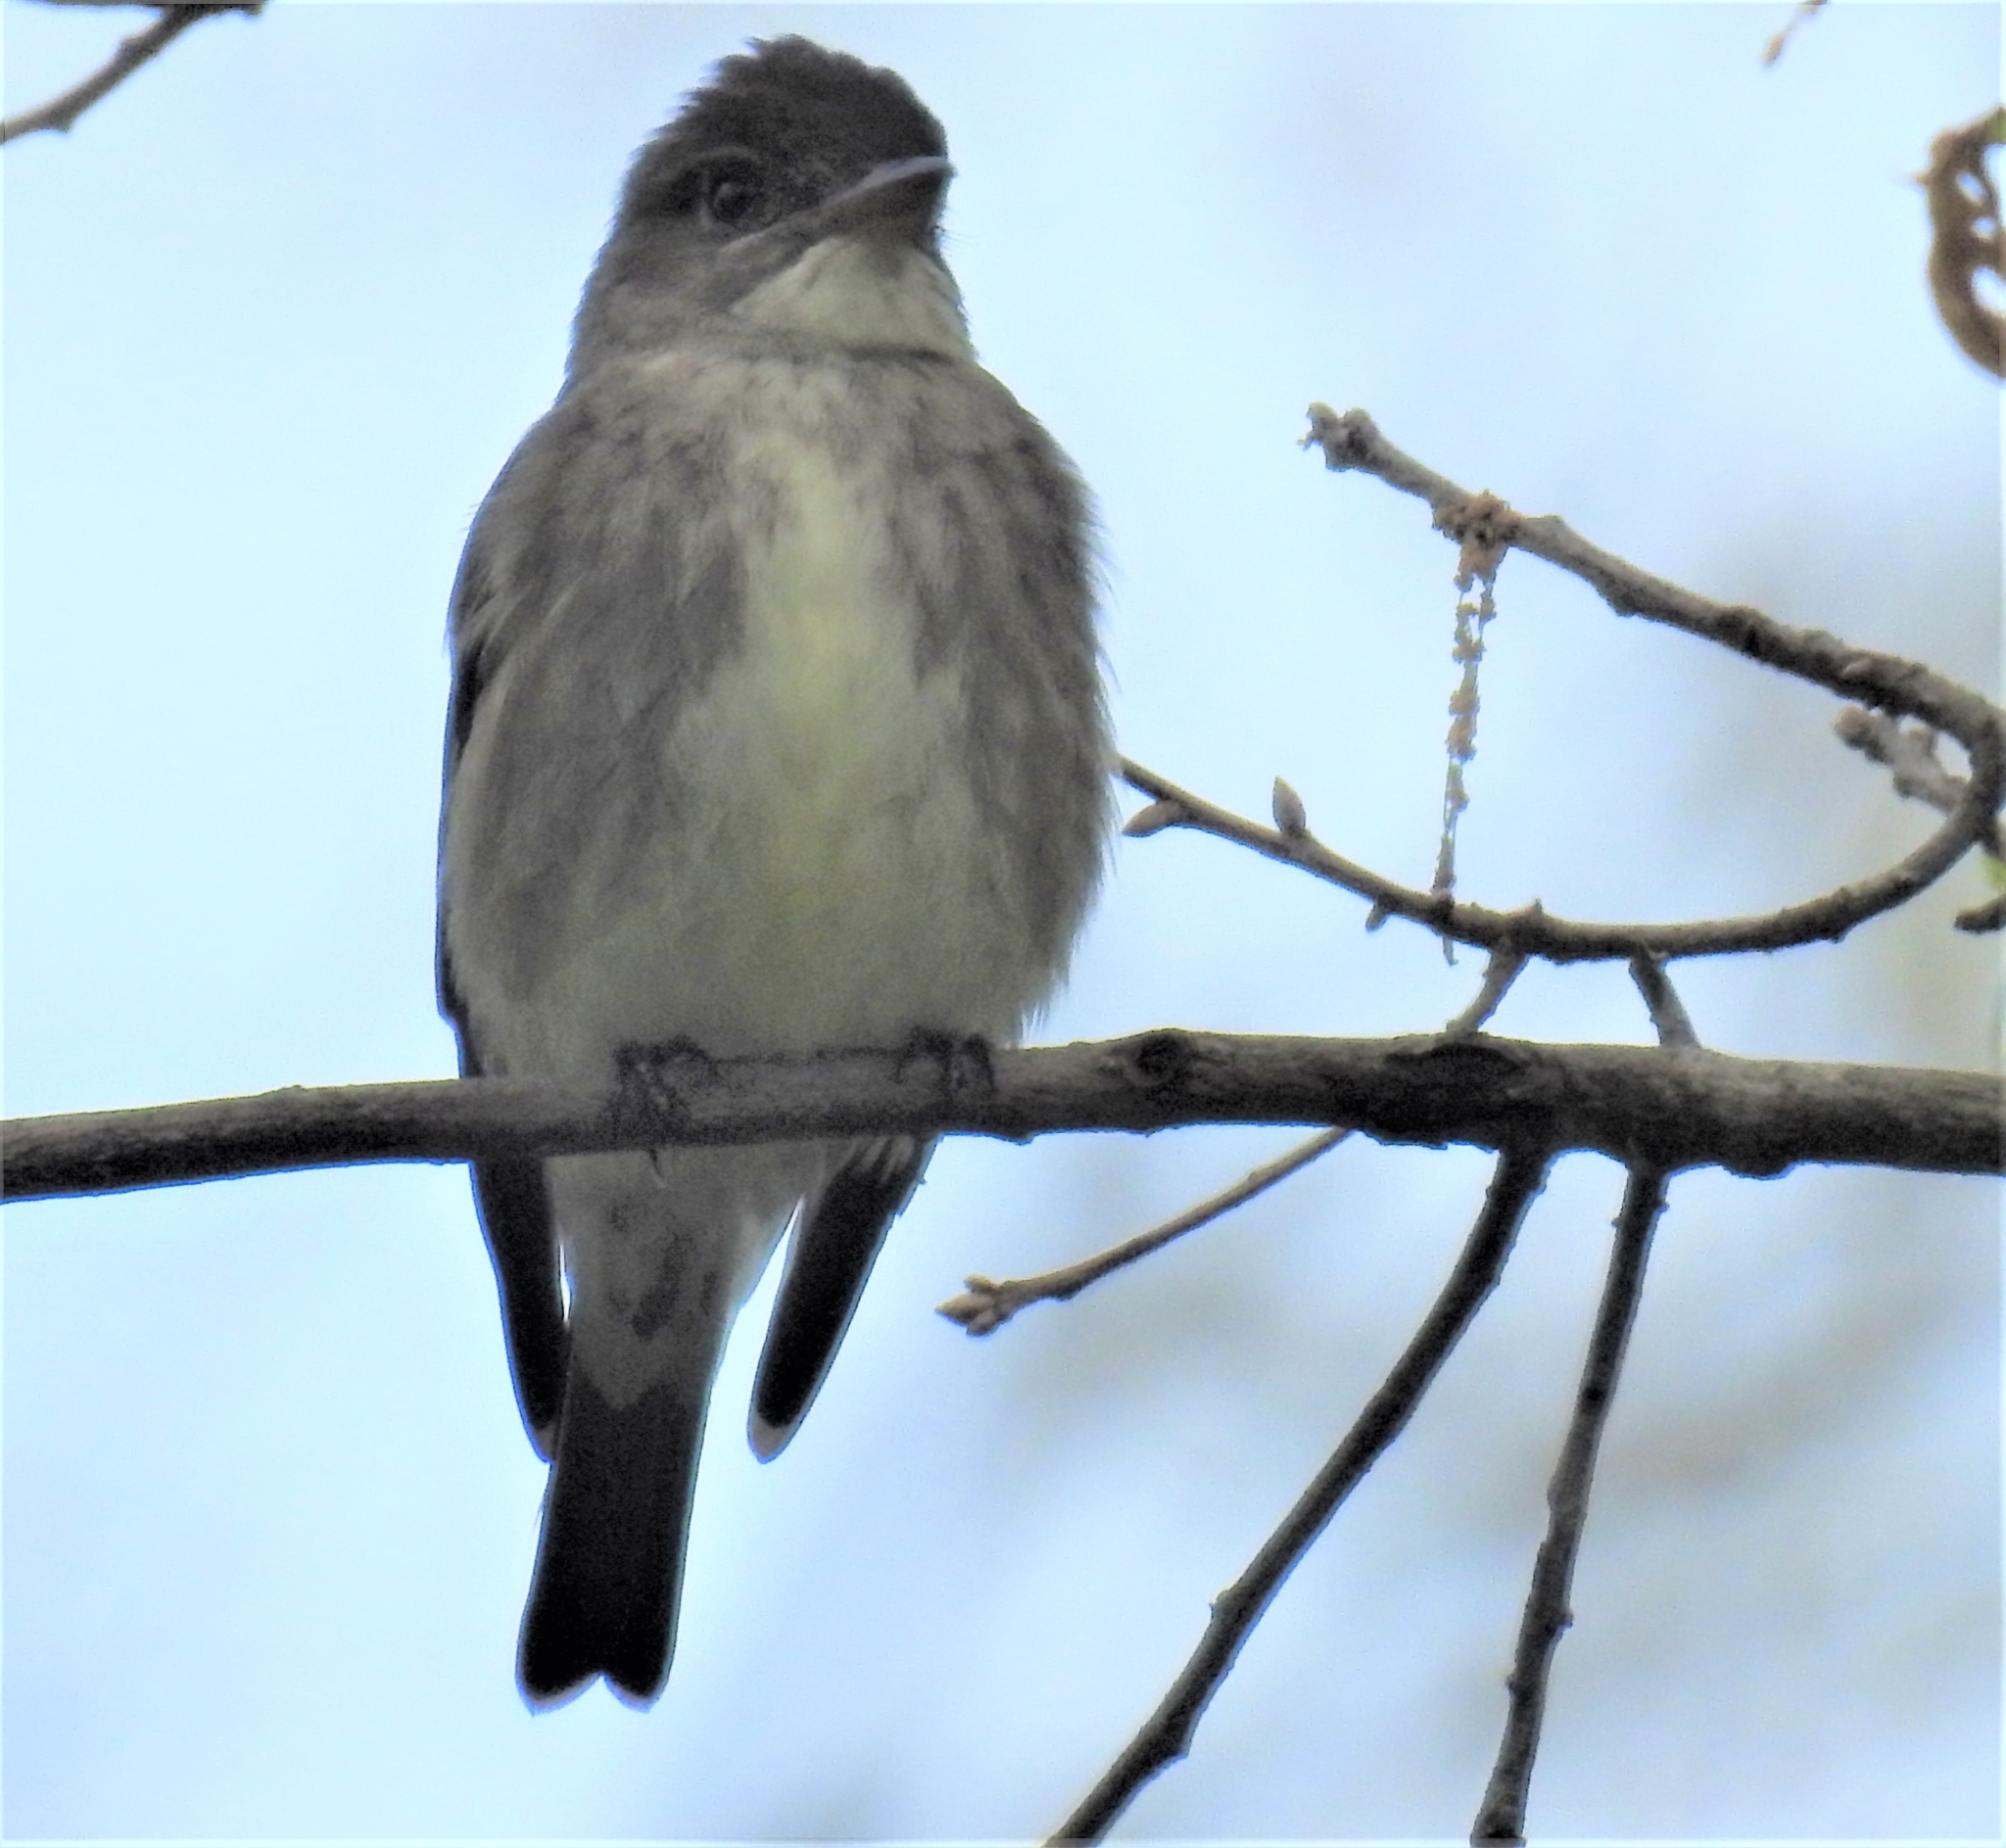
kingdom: Animalia
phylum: Chordata
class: Aves
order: Passeriformes
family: Tyrannidae
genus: Contopus
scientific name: Contopus cooperi
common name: Olive-sided flycatcher
